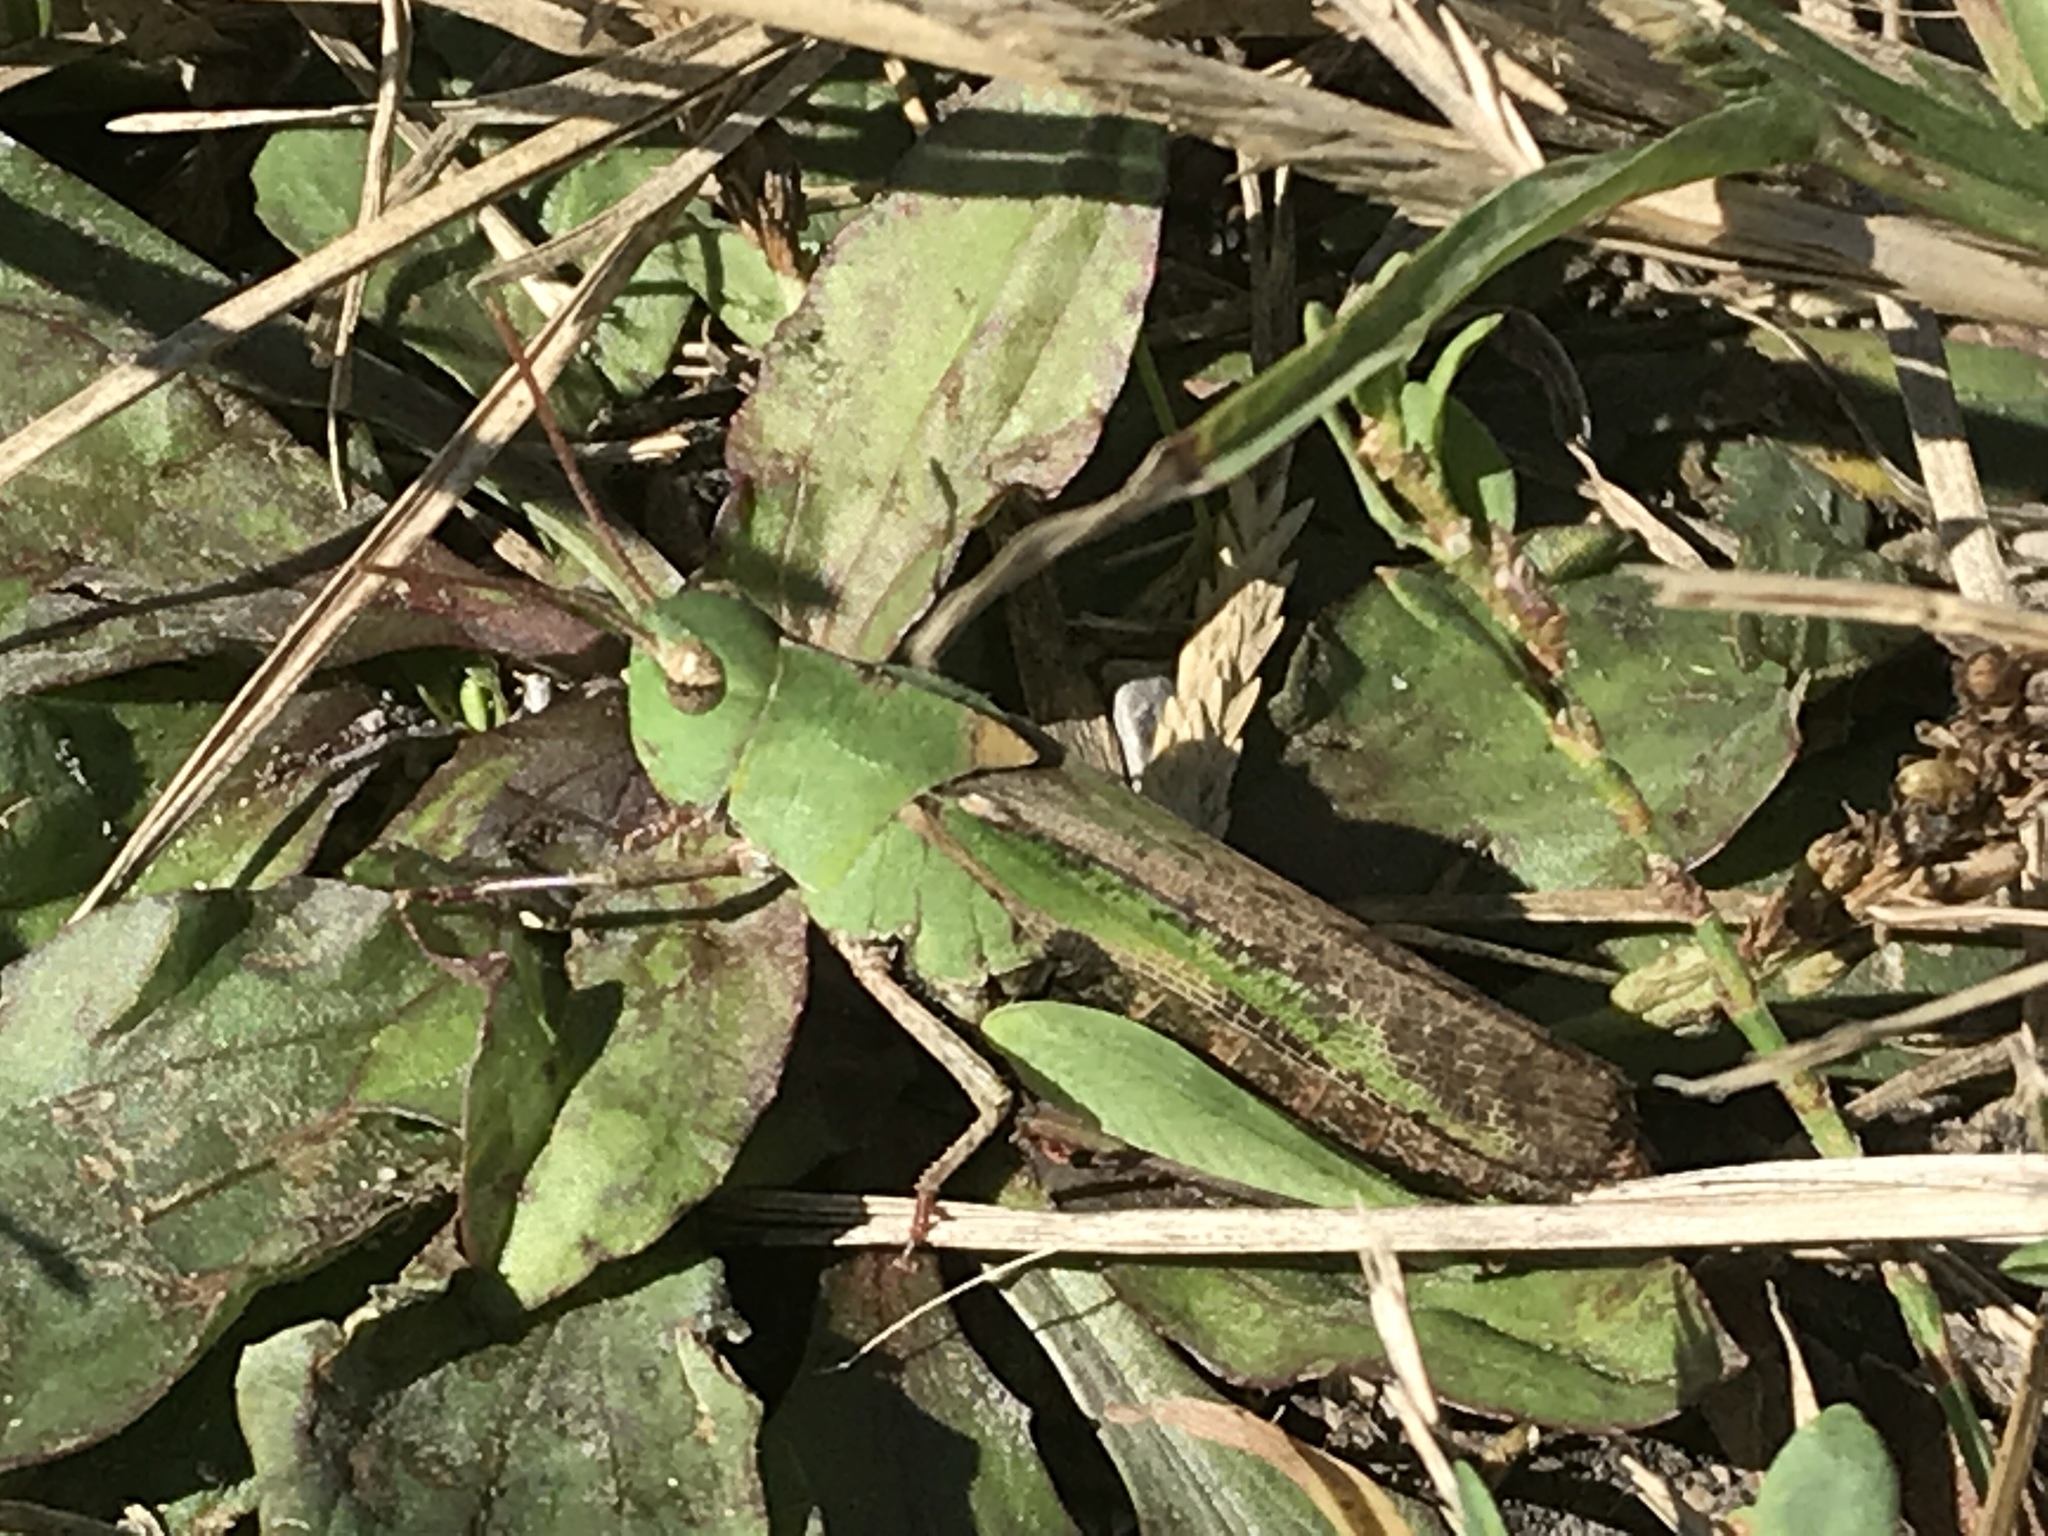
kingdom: Animalia
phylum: Arthropoda
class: Insecta
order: Orthoptera
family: Acrididae
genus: Chortophaga
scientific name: Chortophaga viridifasciata
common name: Green-striped grasshopper
